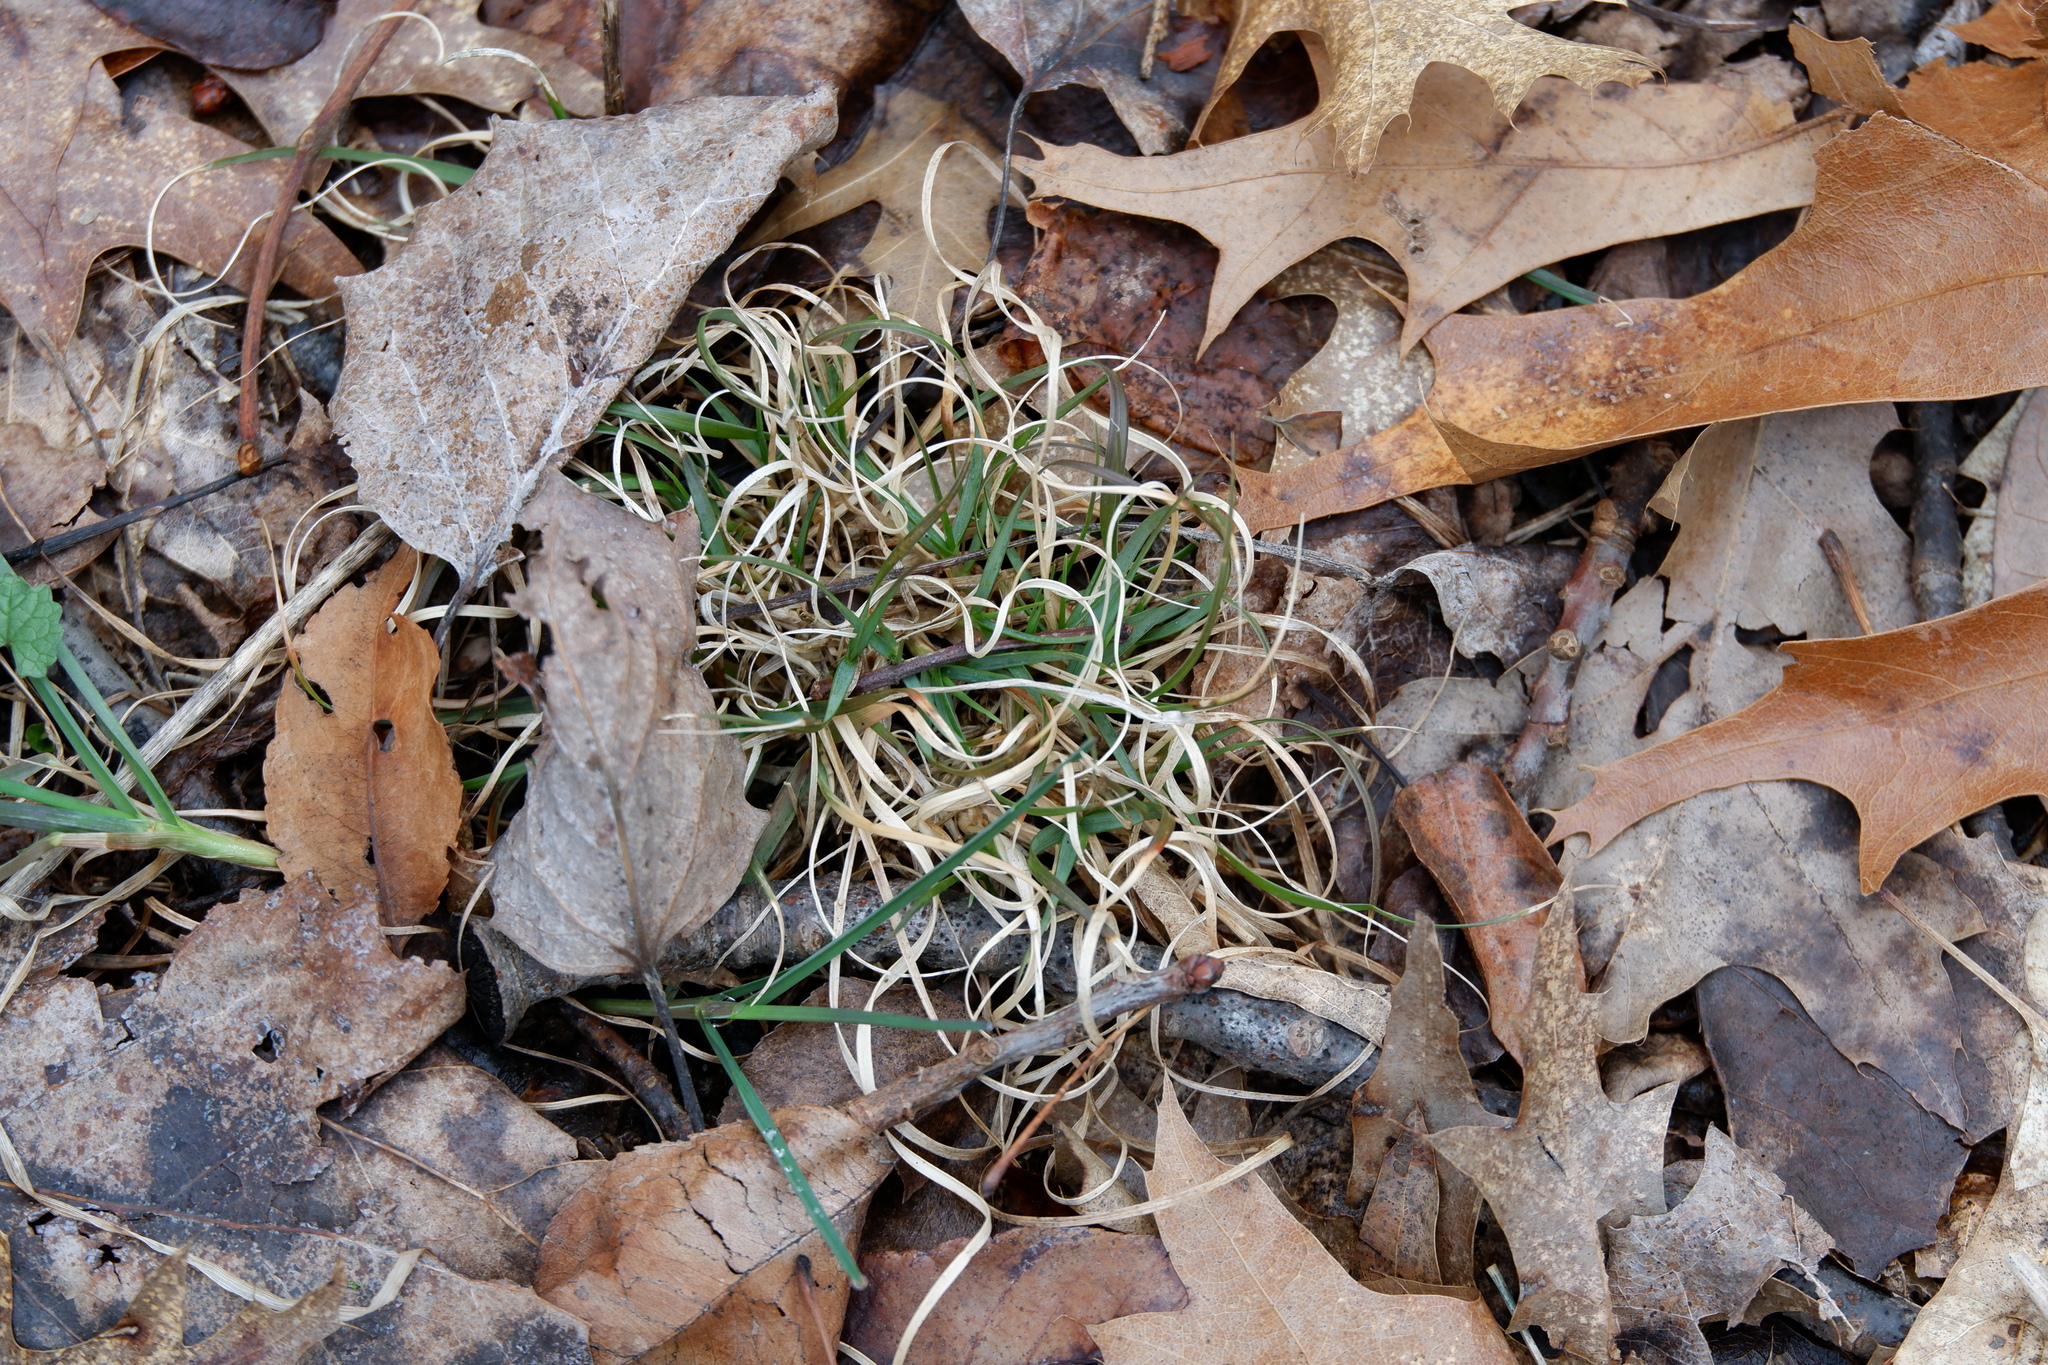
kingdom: Plantae
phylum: Tracheophyta
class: Liliopsida
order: Poales
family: Poaceae
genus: Danthonia
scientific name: Danthonia spicata
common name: Common wild oatgrass
